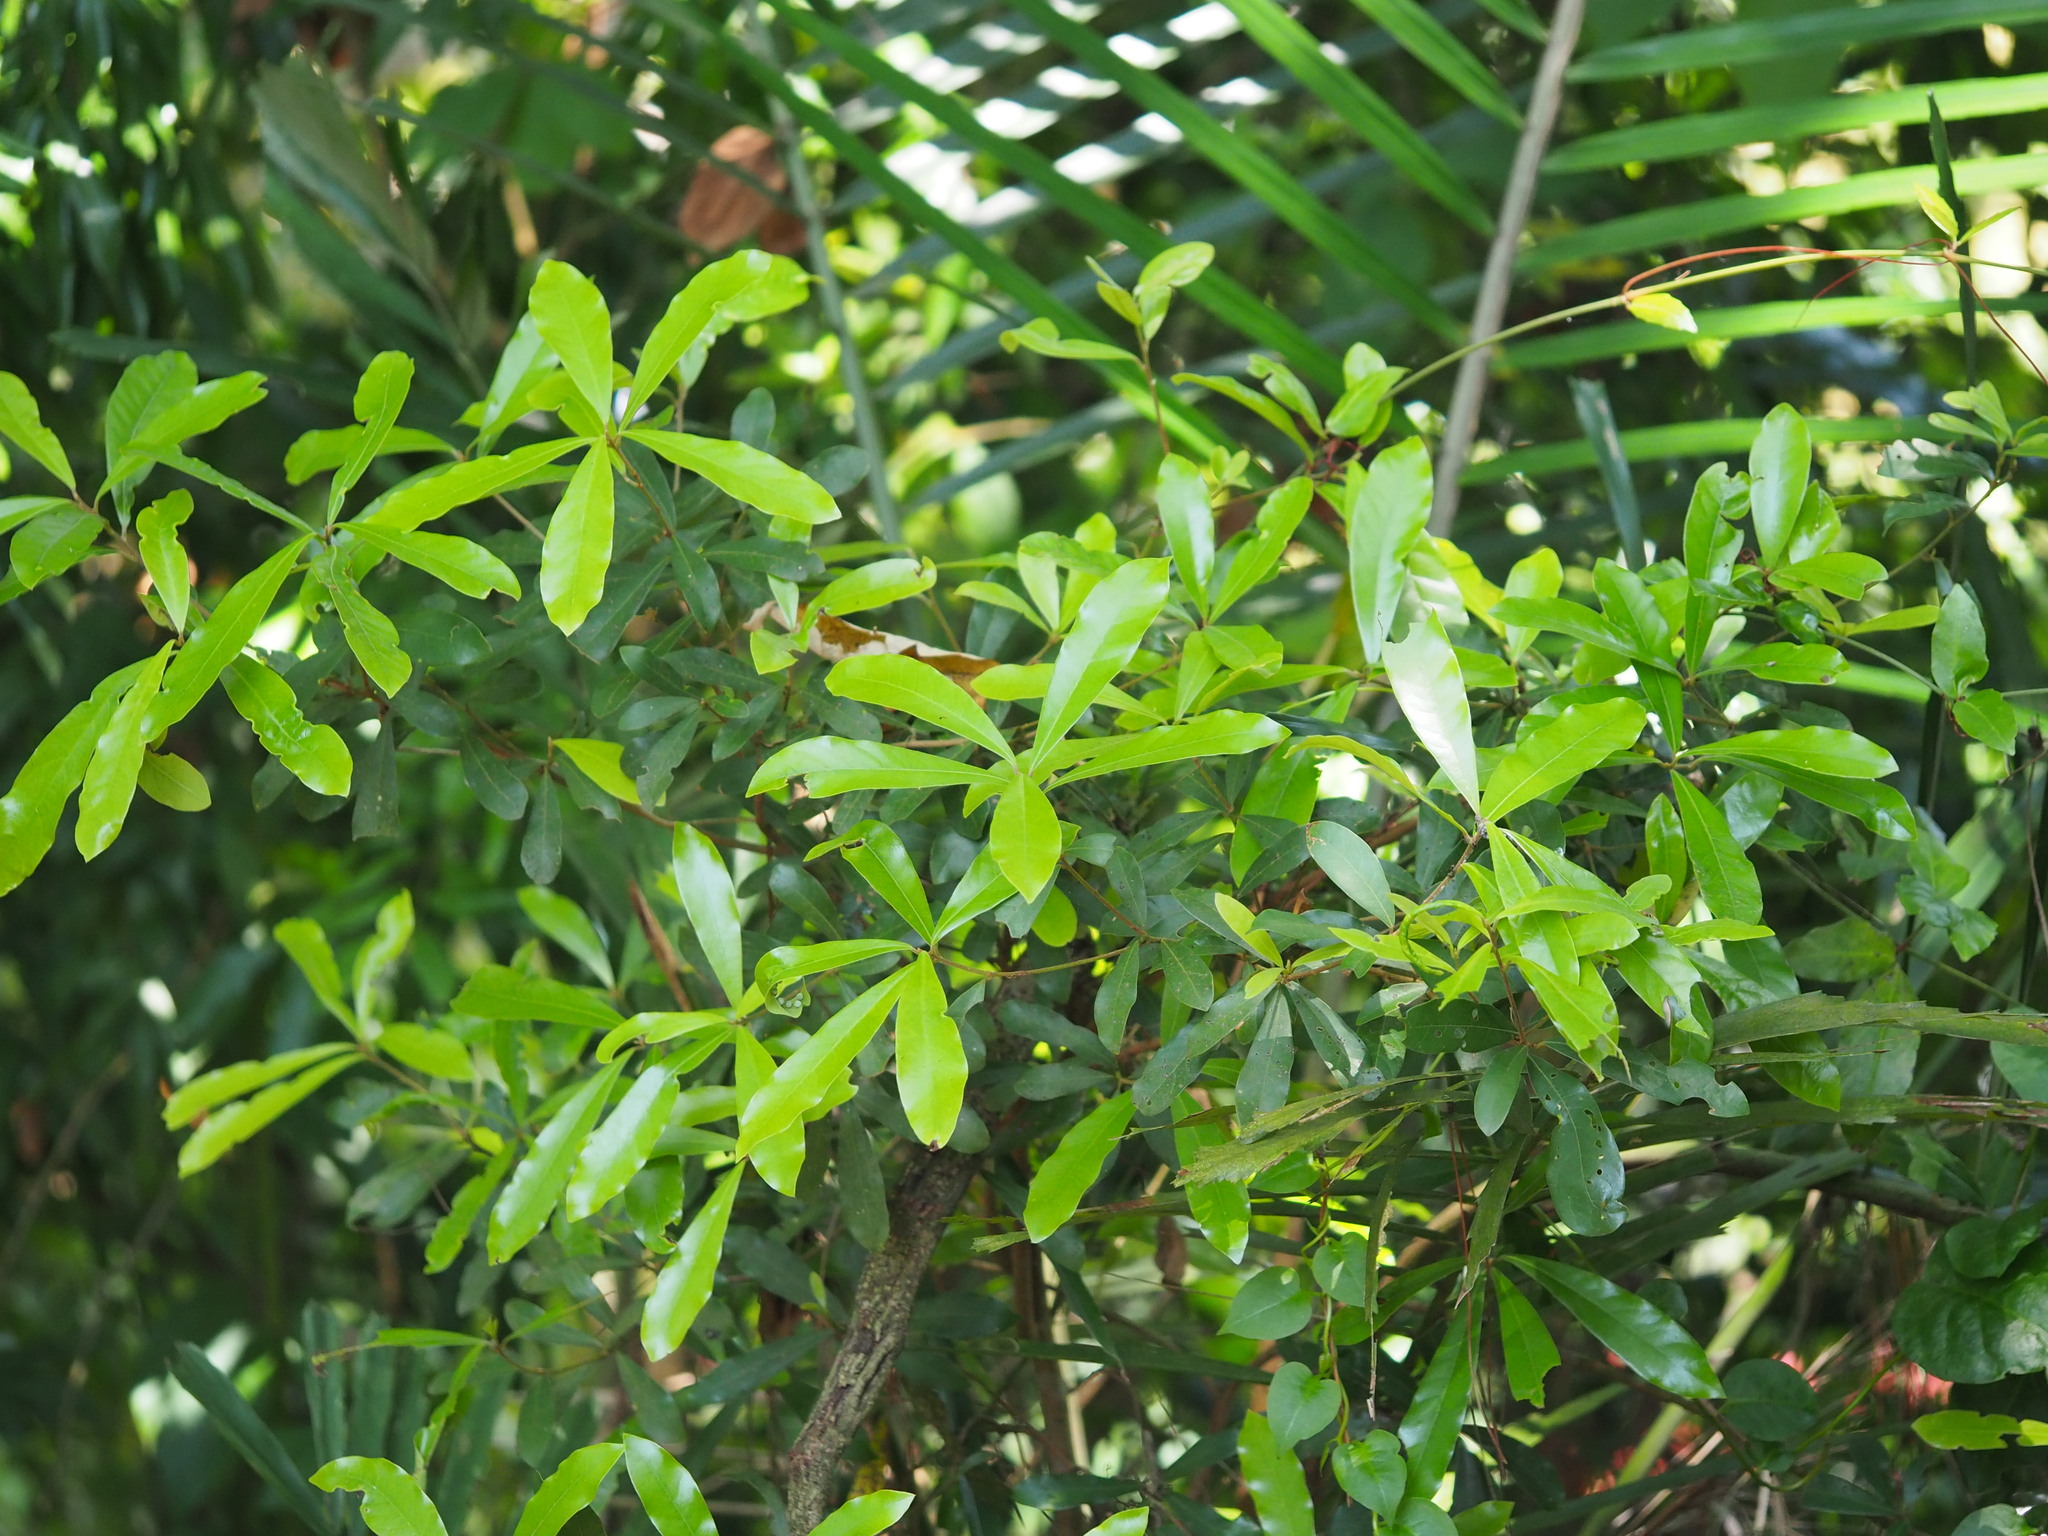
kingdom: Plantae
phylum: Tracheophyta
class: Magnoliopsida
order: Laurales
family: Lauraceae
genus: Litsea
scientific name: Litsea hypophaea
